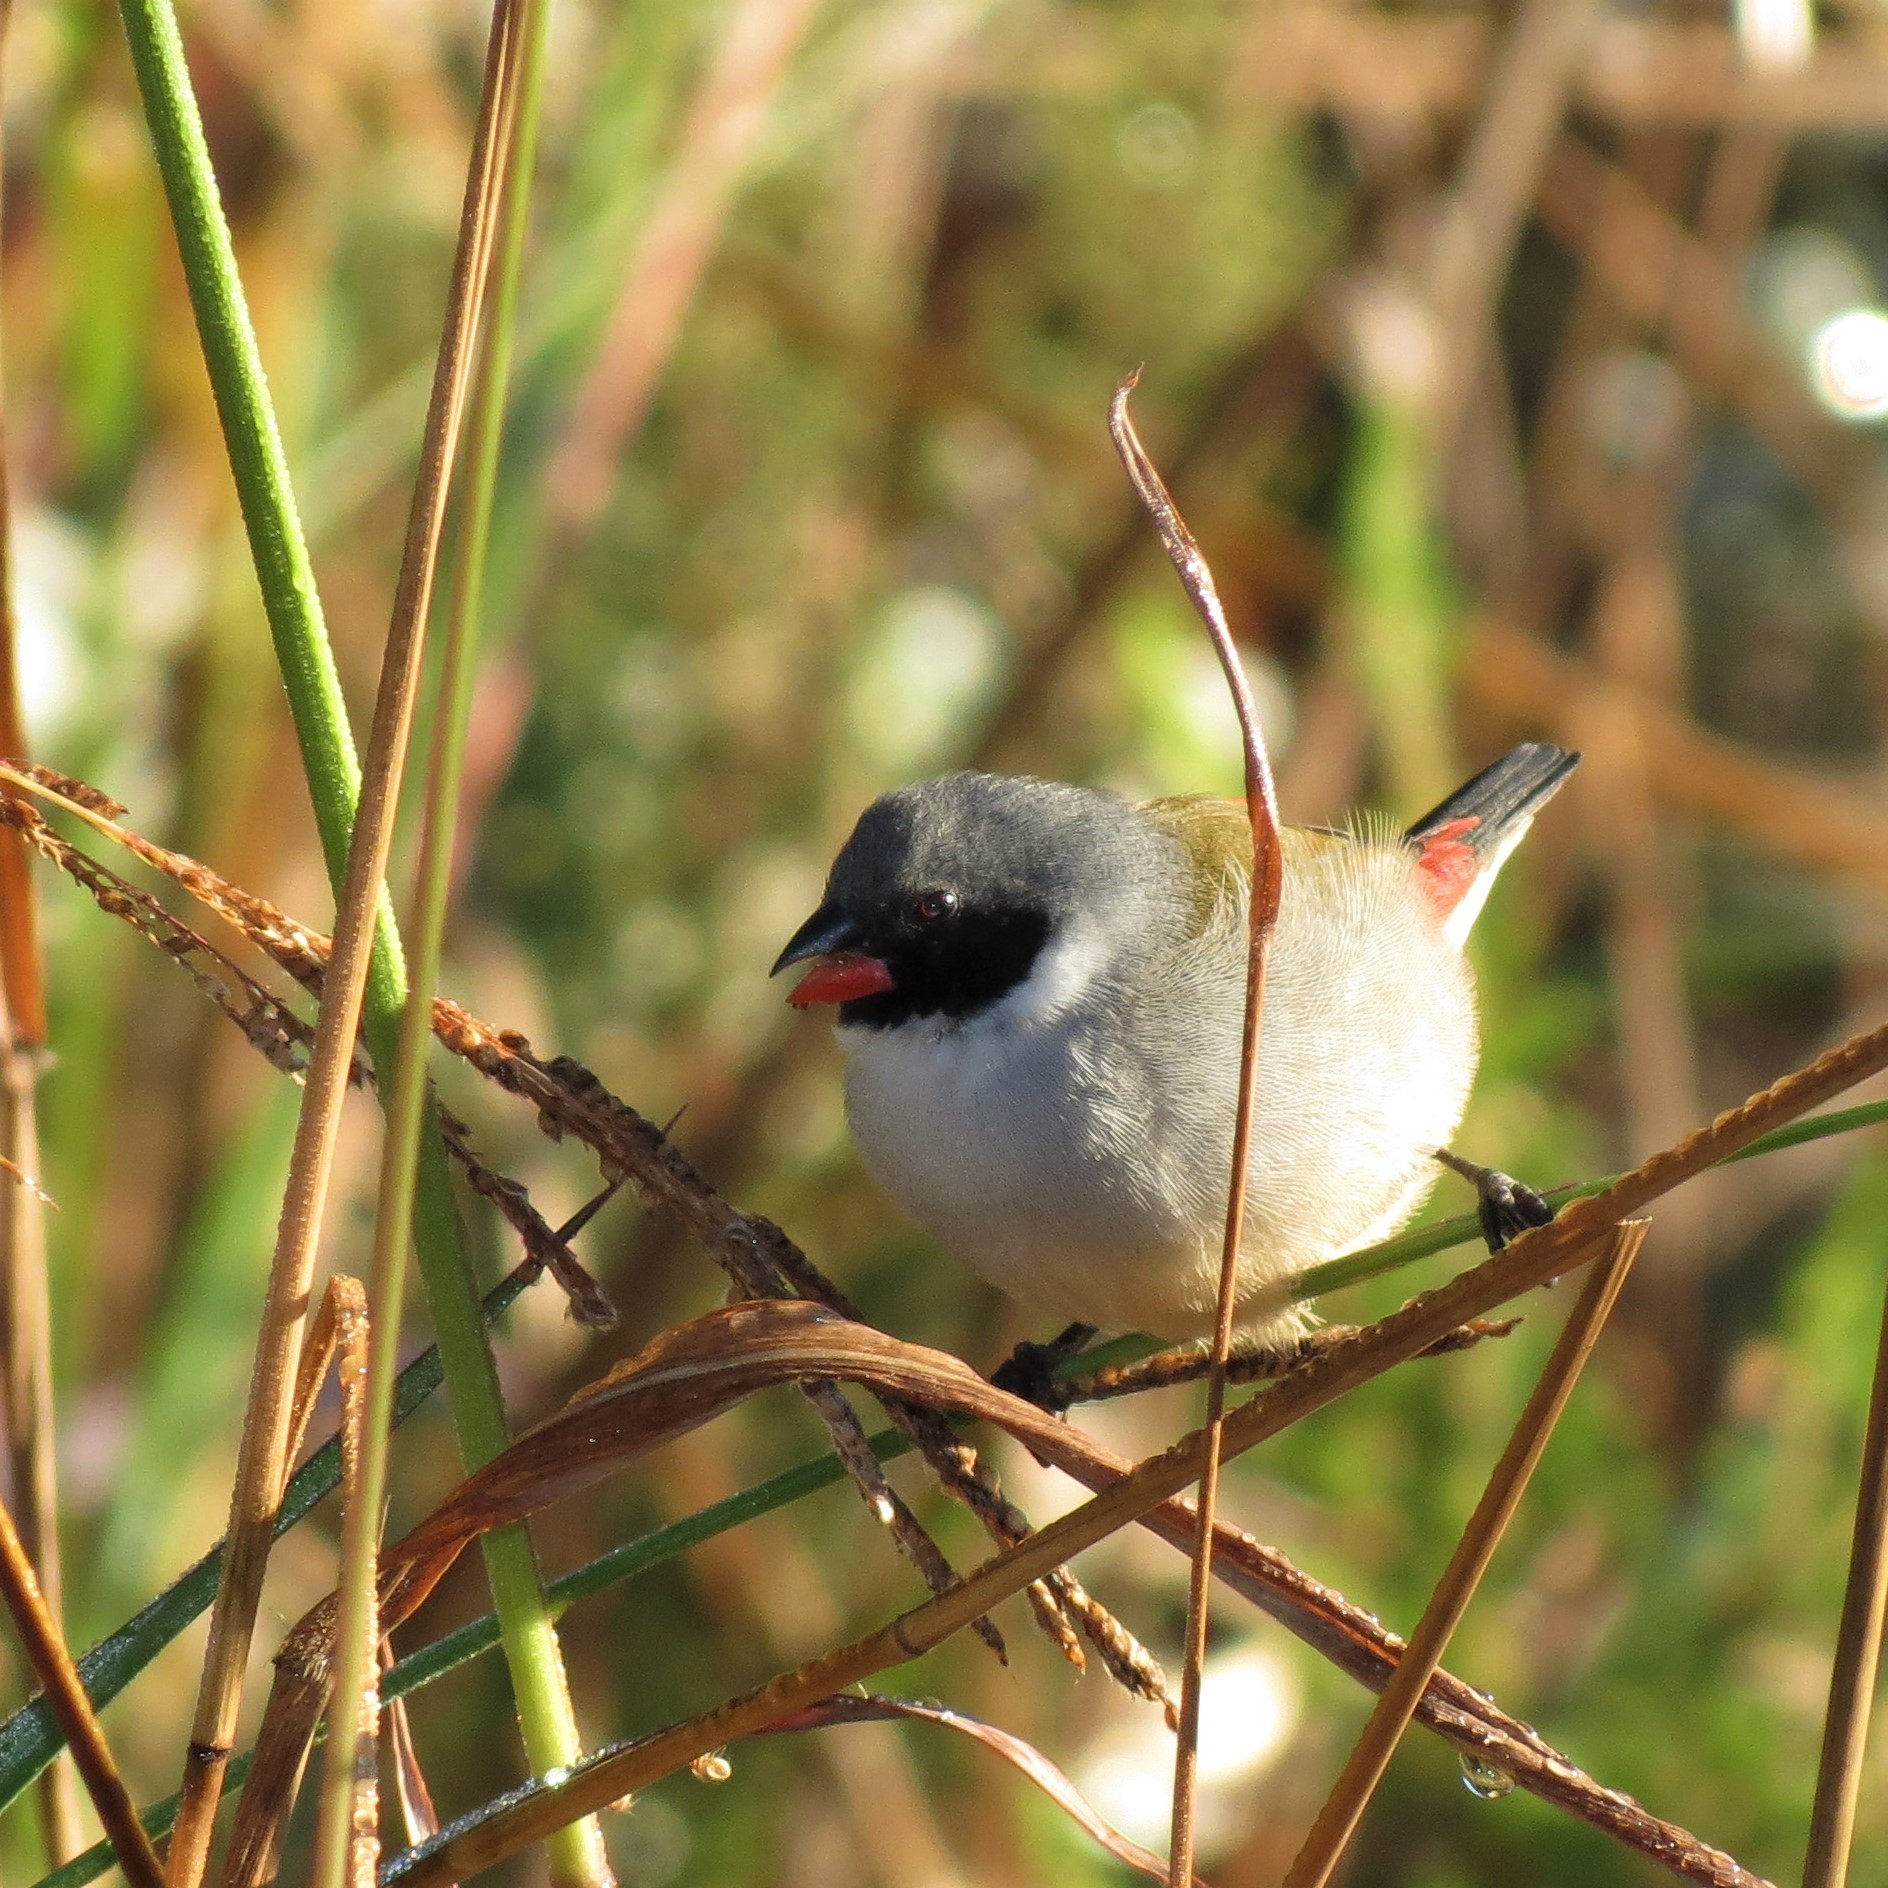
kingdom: Animalia
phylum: Chordata
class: Aves
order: Passeriformes
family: Estrildidae
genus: Coccopygia
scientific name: Coccopygia melanotis
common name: Swee waxbill
